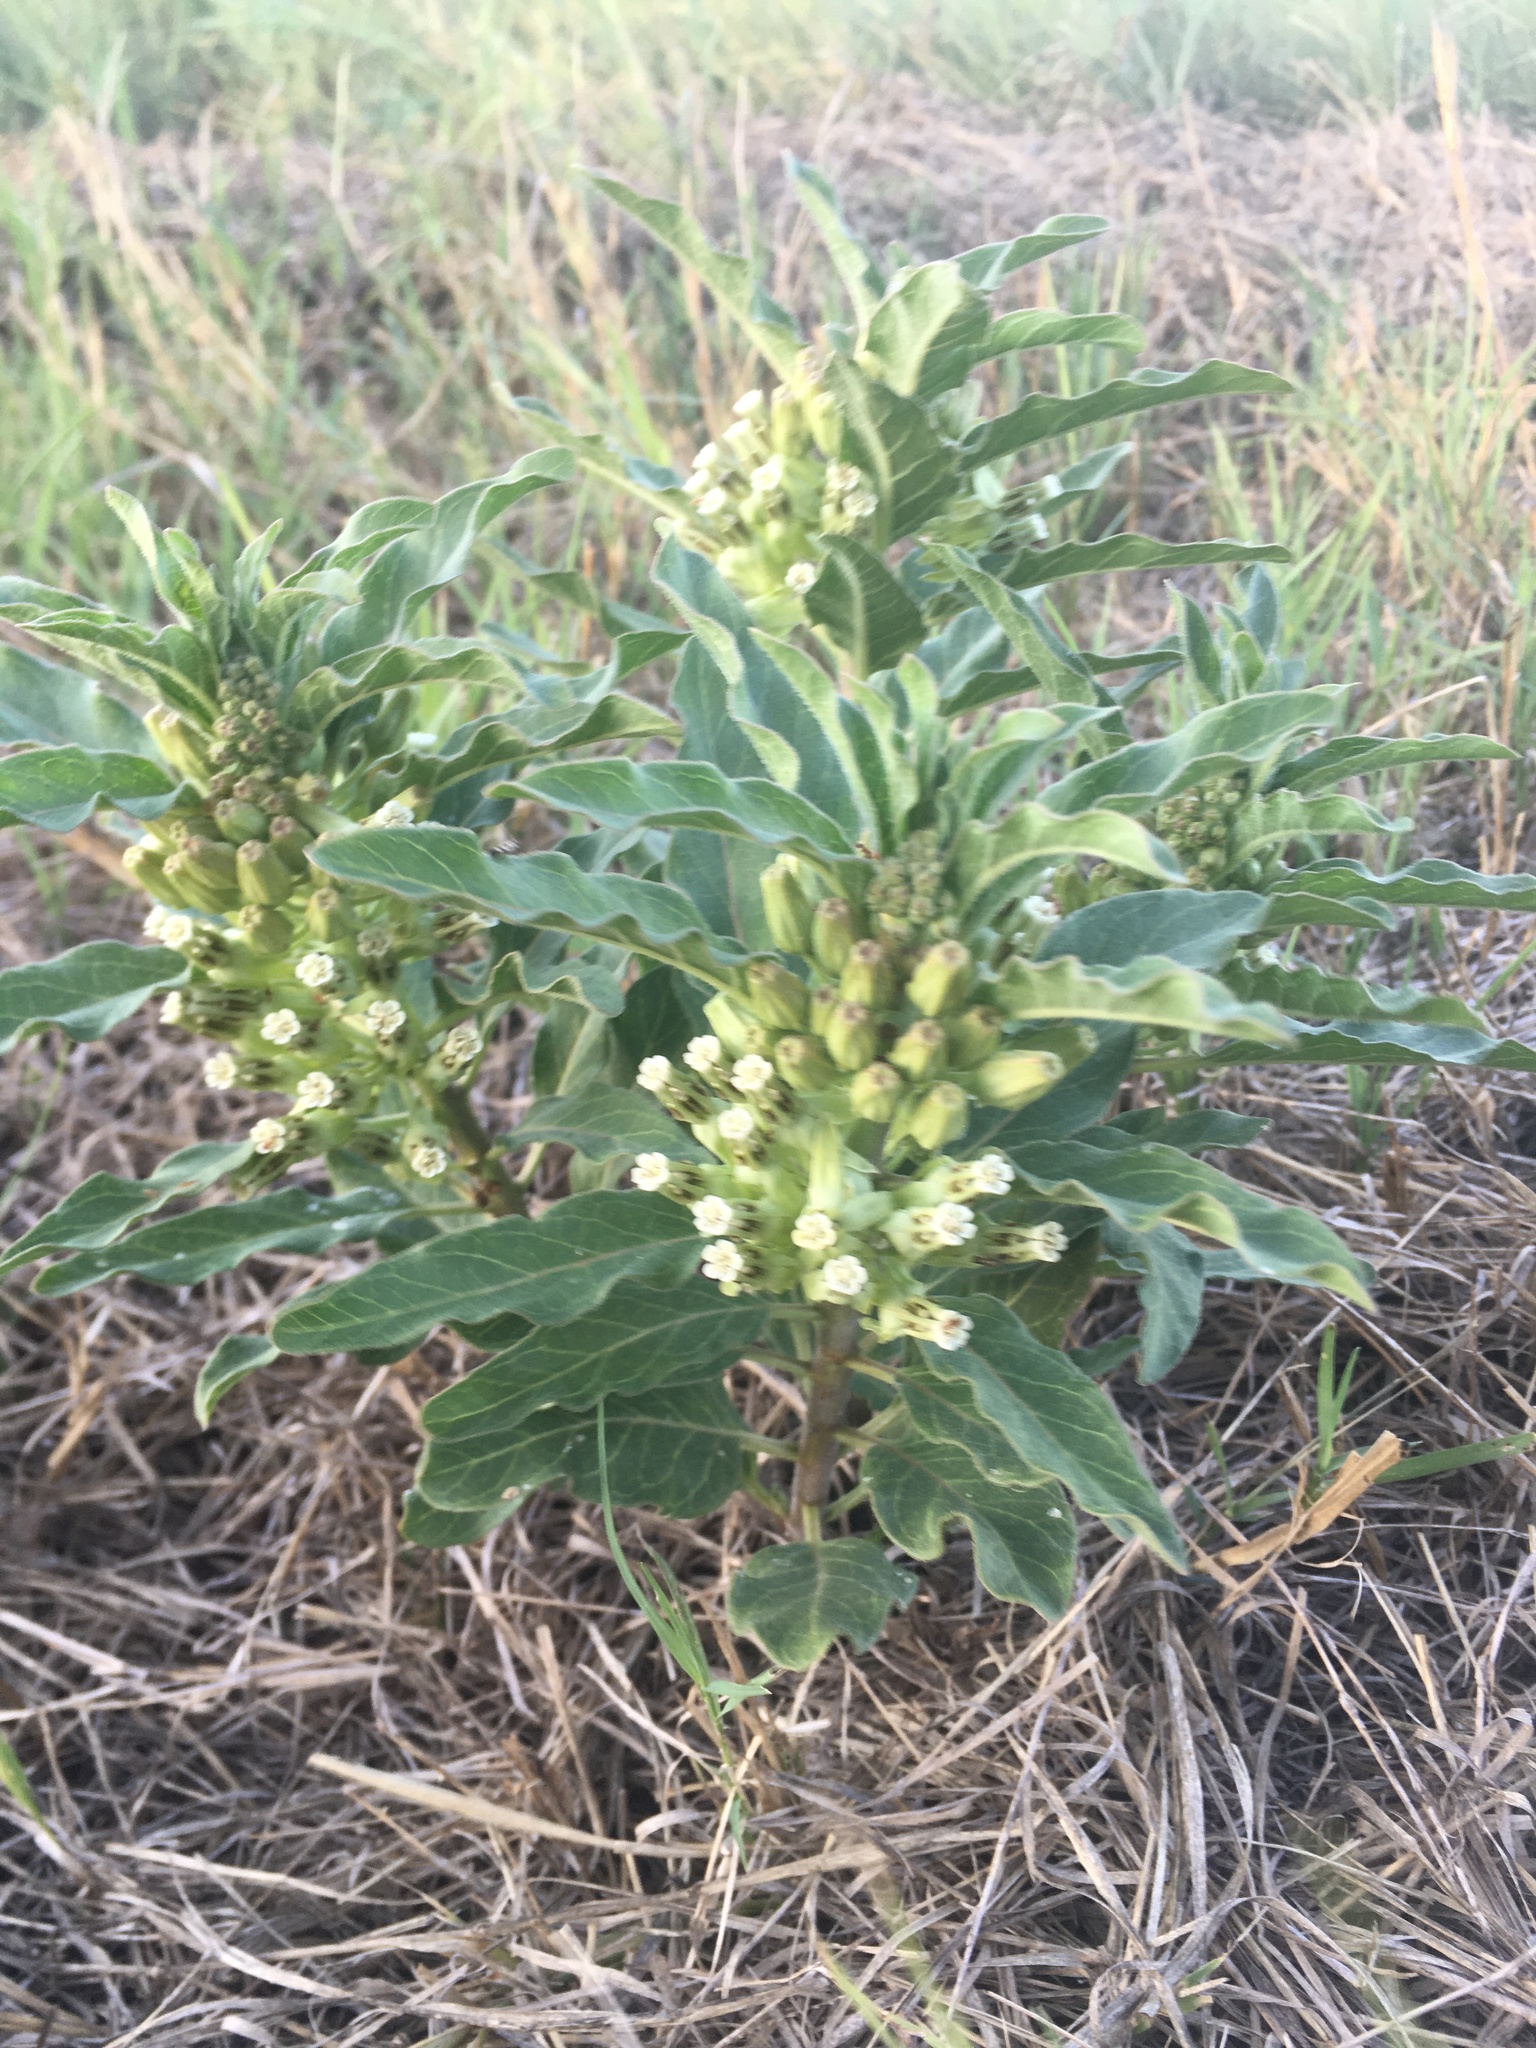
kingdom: Plantae
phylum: Tracheophyta
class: Magnoliopsida
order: Gentianales
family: Apocynaceae
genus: Asclepias
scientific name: Asclepias oenotheroides
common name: Zizotes milkweed
